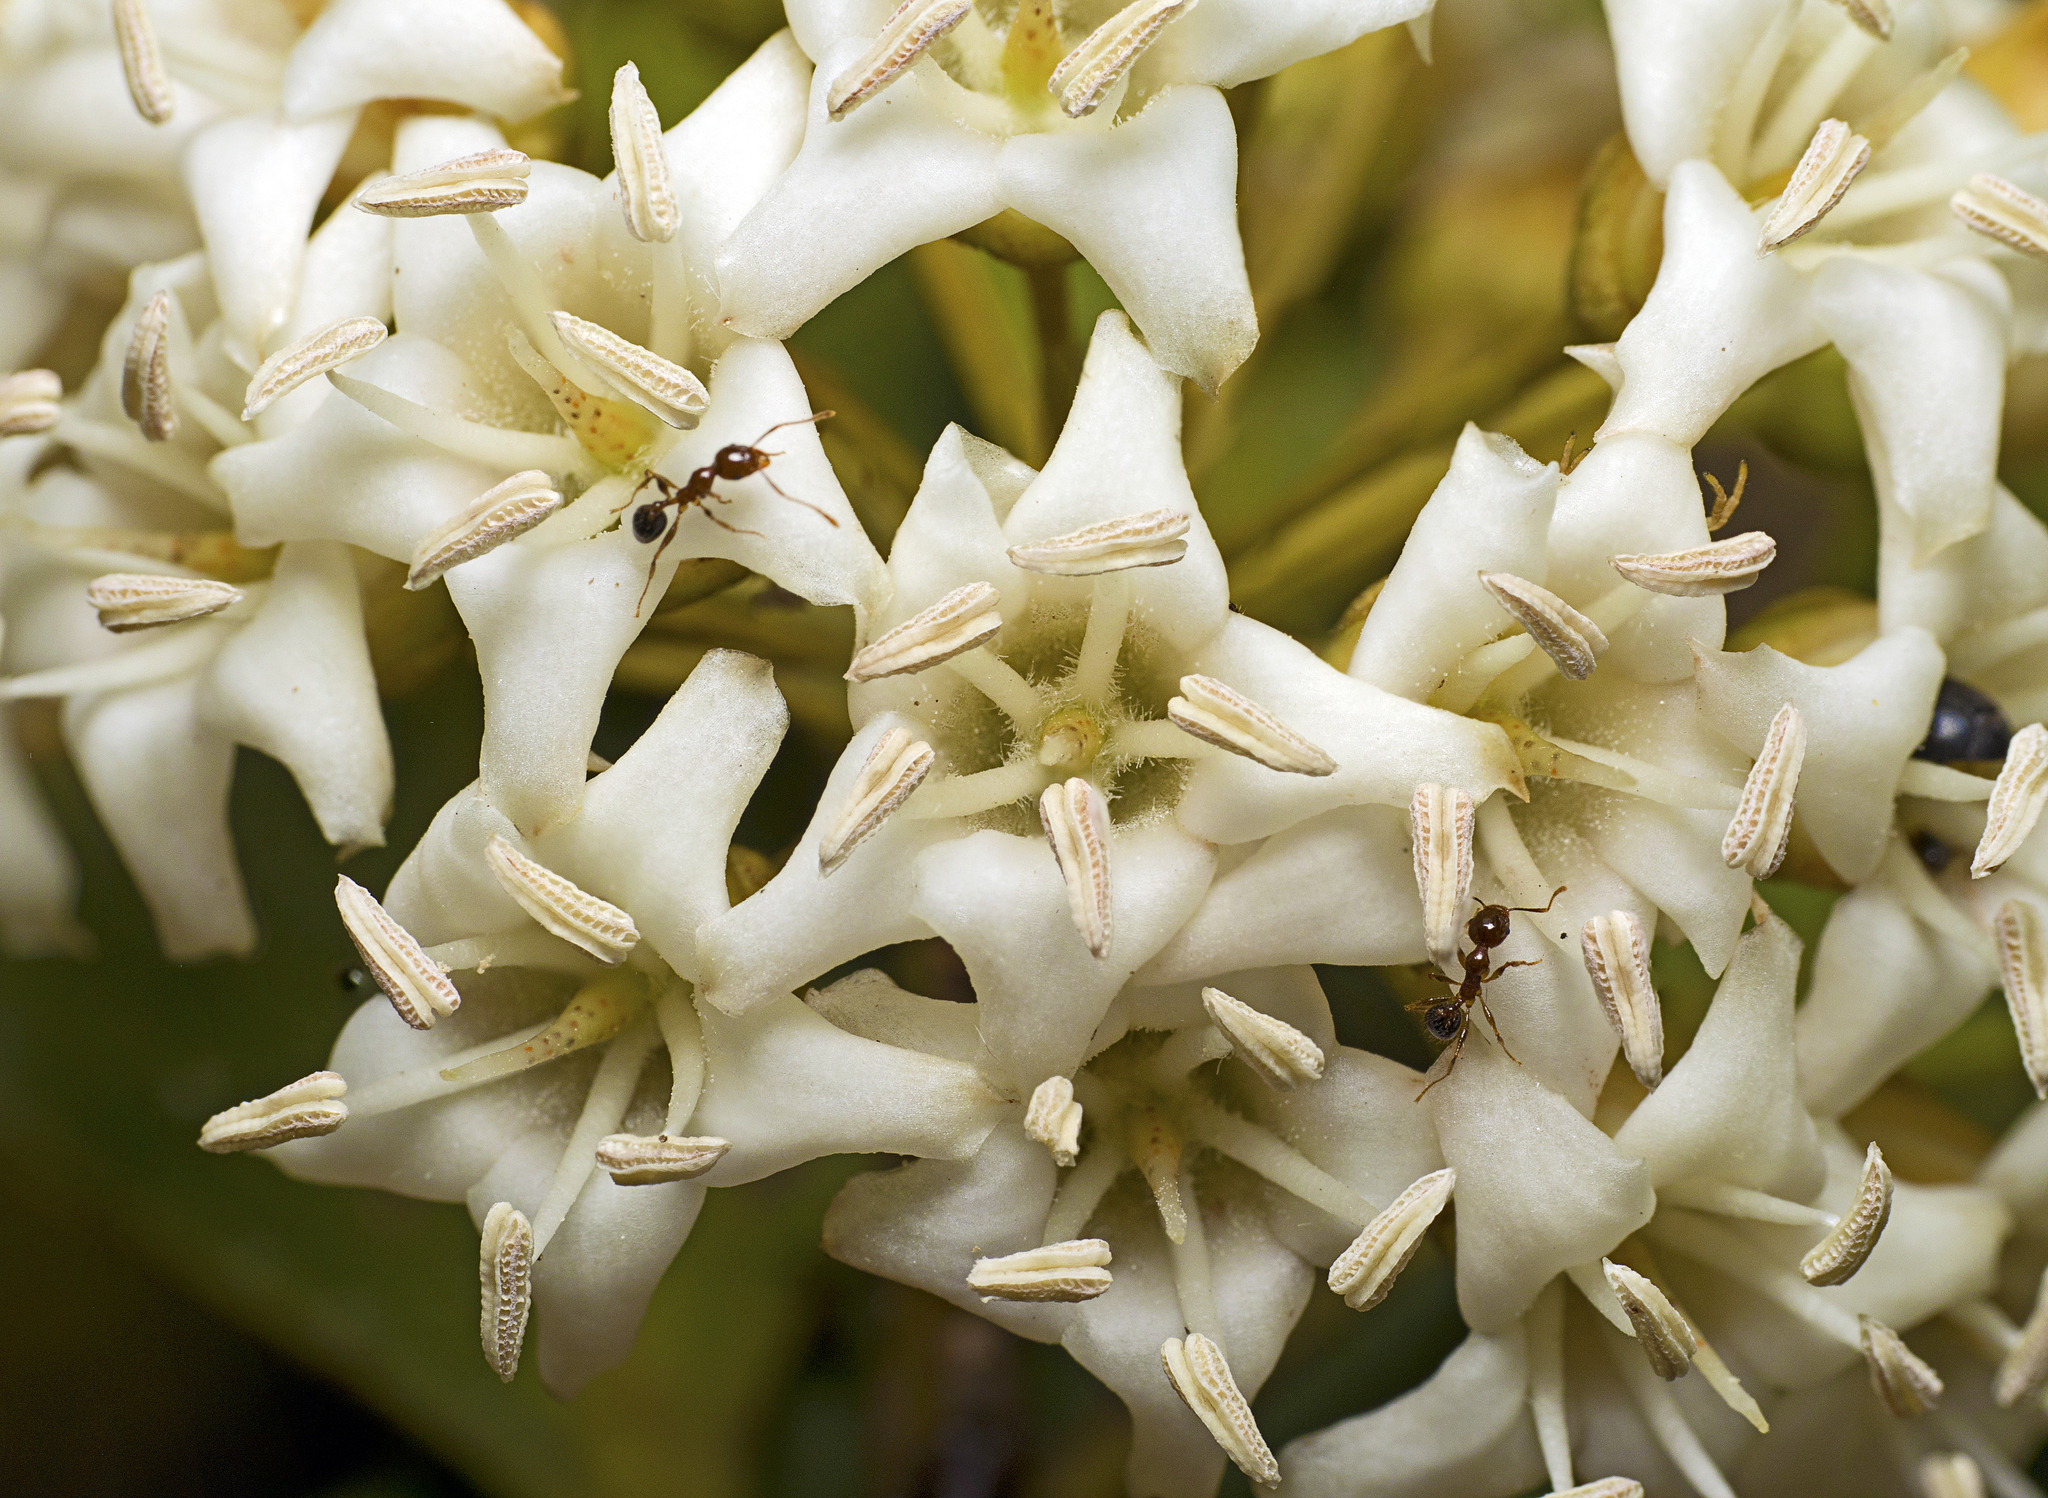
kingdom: Plantae
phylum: Tracheophyta
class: Magnoliopsida
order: Ericales
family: Primulaceae
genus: Aegiceras
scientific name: Aegiceras corniculatum
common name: River mangrove
